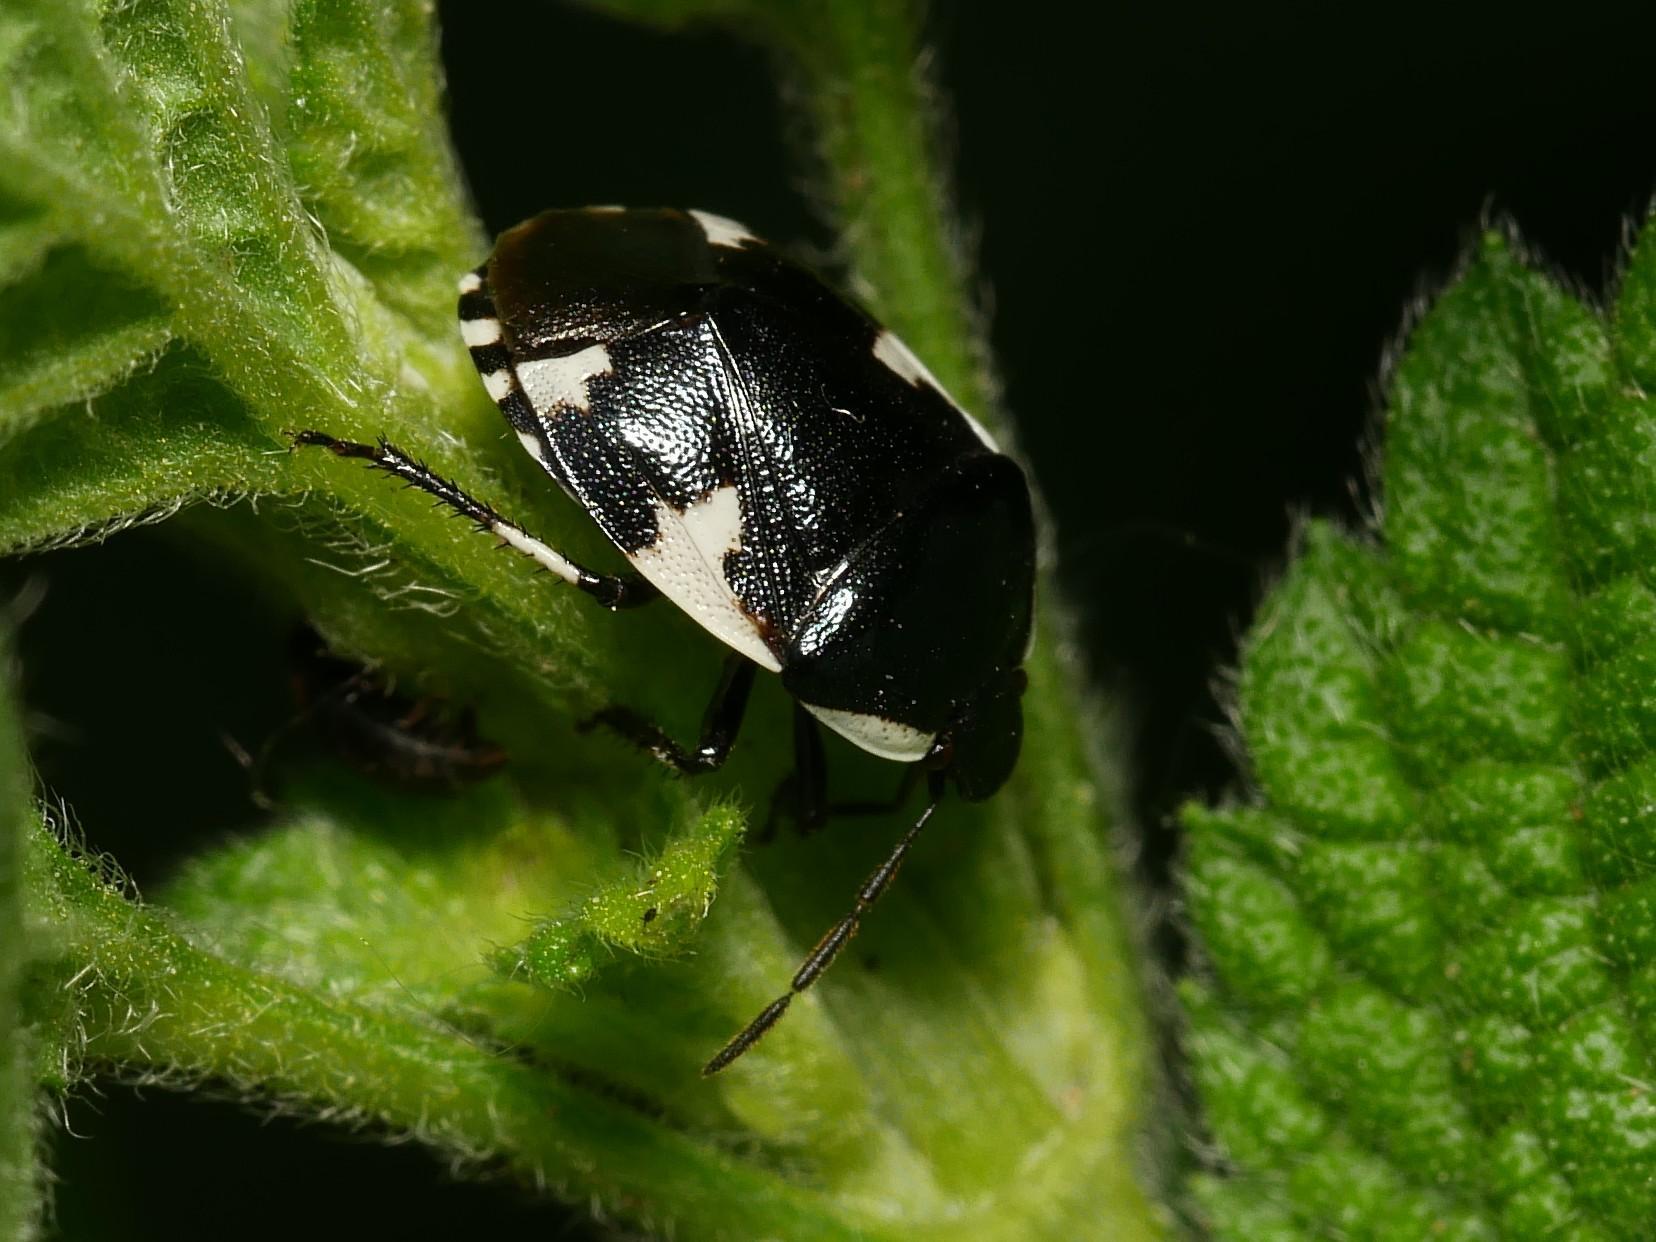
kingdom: Animalia
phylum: Arthropoda
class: Insecta
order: Hemiptera
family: Cydnidae
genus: Tritomegas
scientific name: Tritomegas sexmaculatus
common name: Rambur's pied shieldbug
